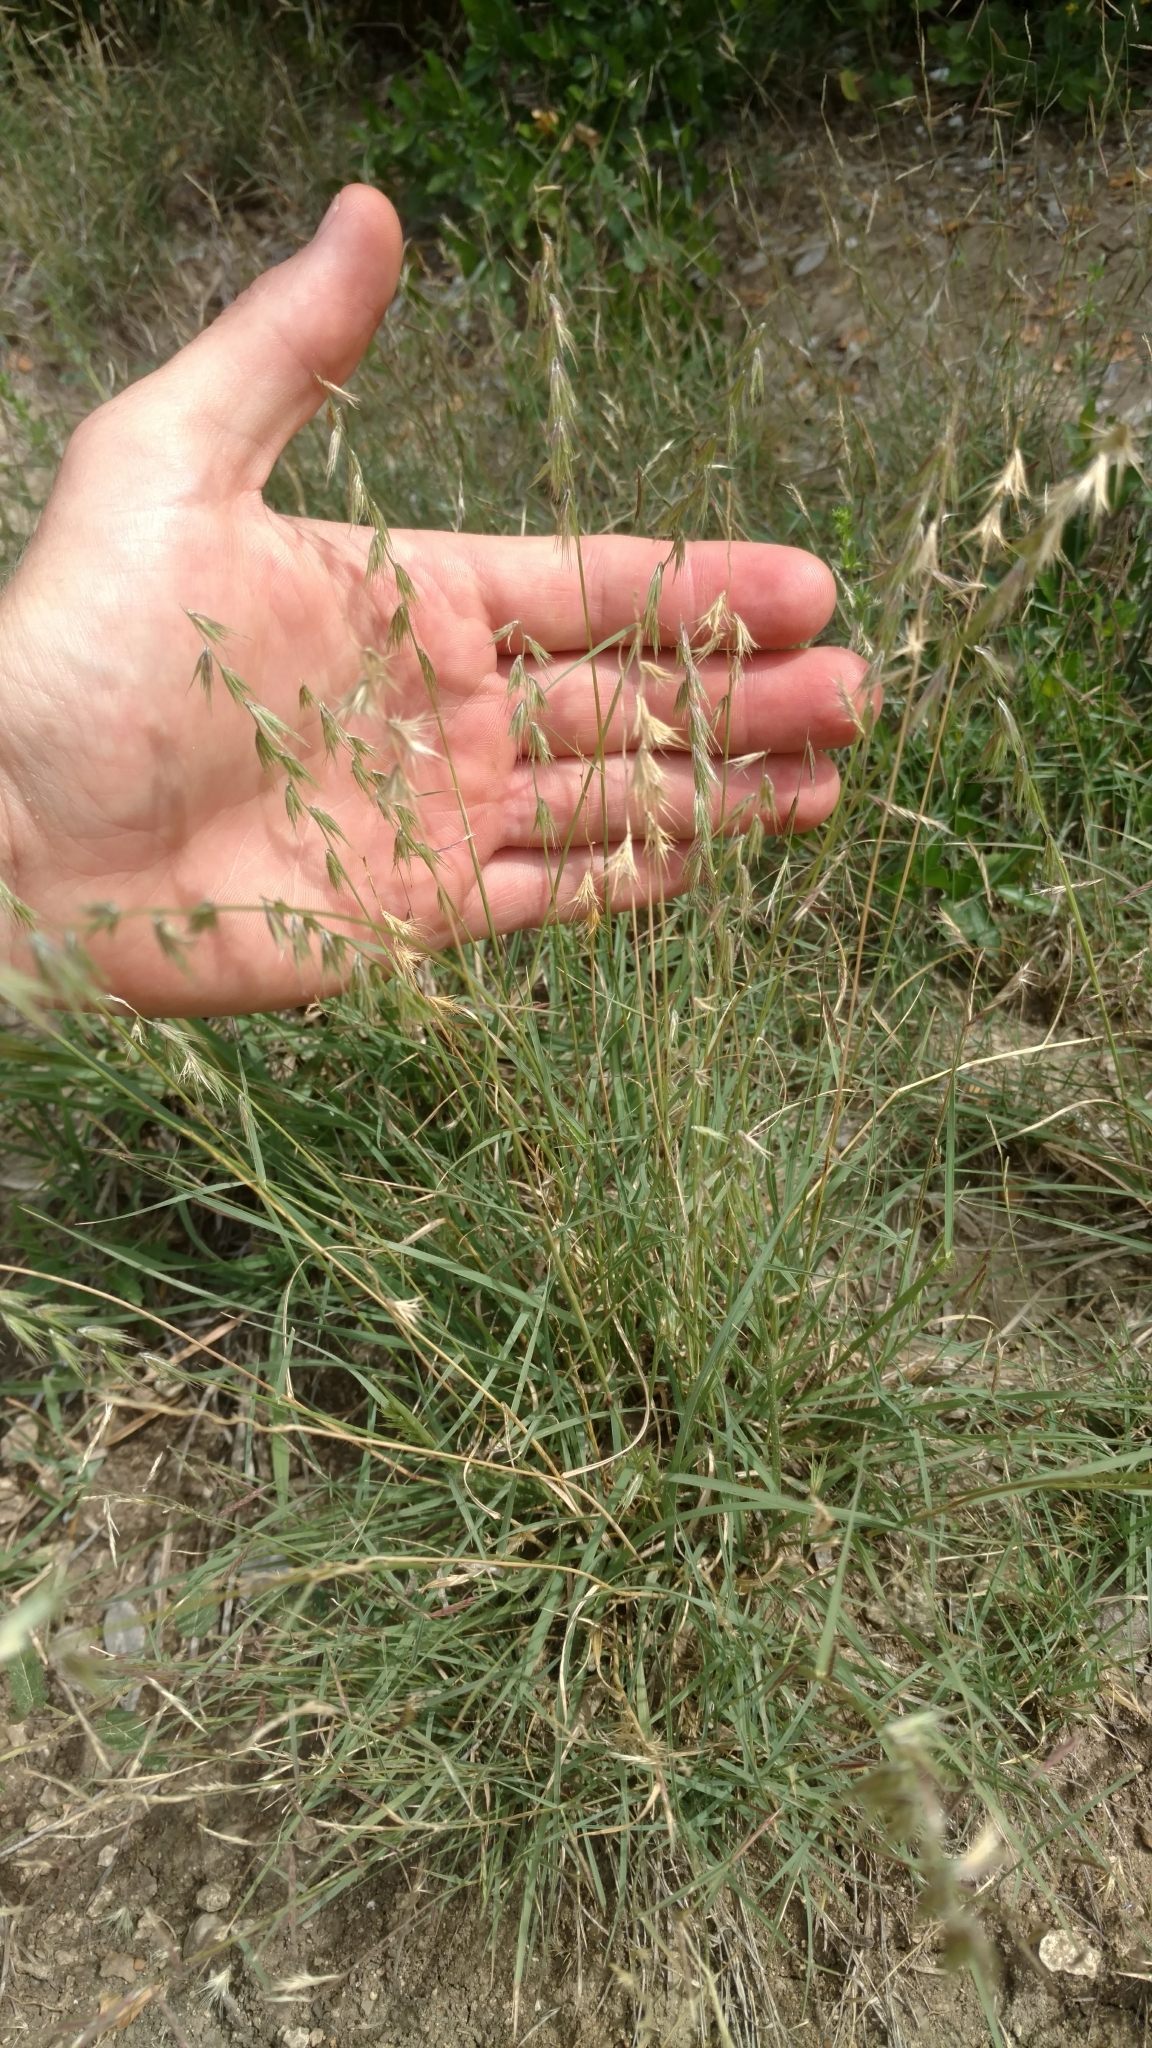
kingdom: Plantae
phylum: Tracheophyta
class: Liliopsida
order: Poales
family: Poaceae
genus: Bouteloua
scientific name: Bouteloua rigidiseta
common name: Texas grama
